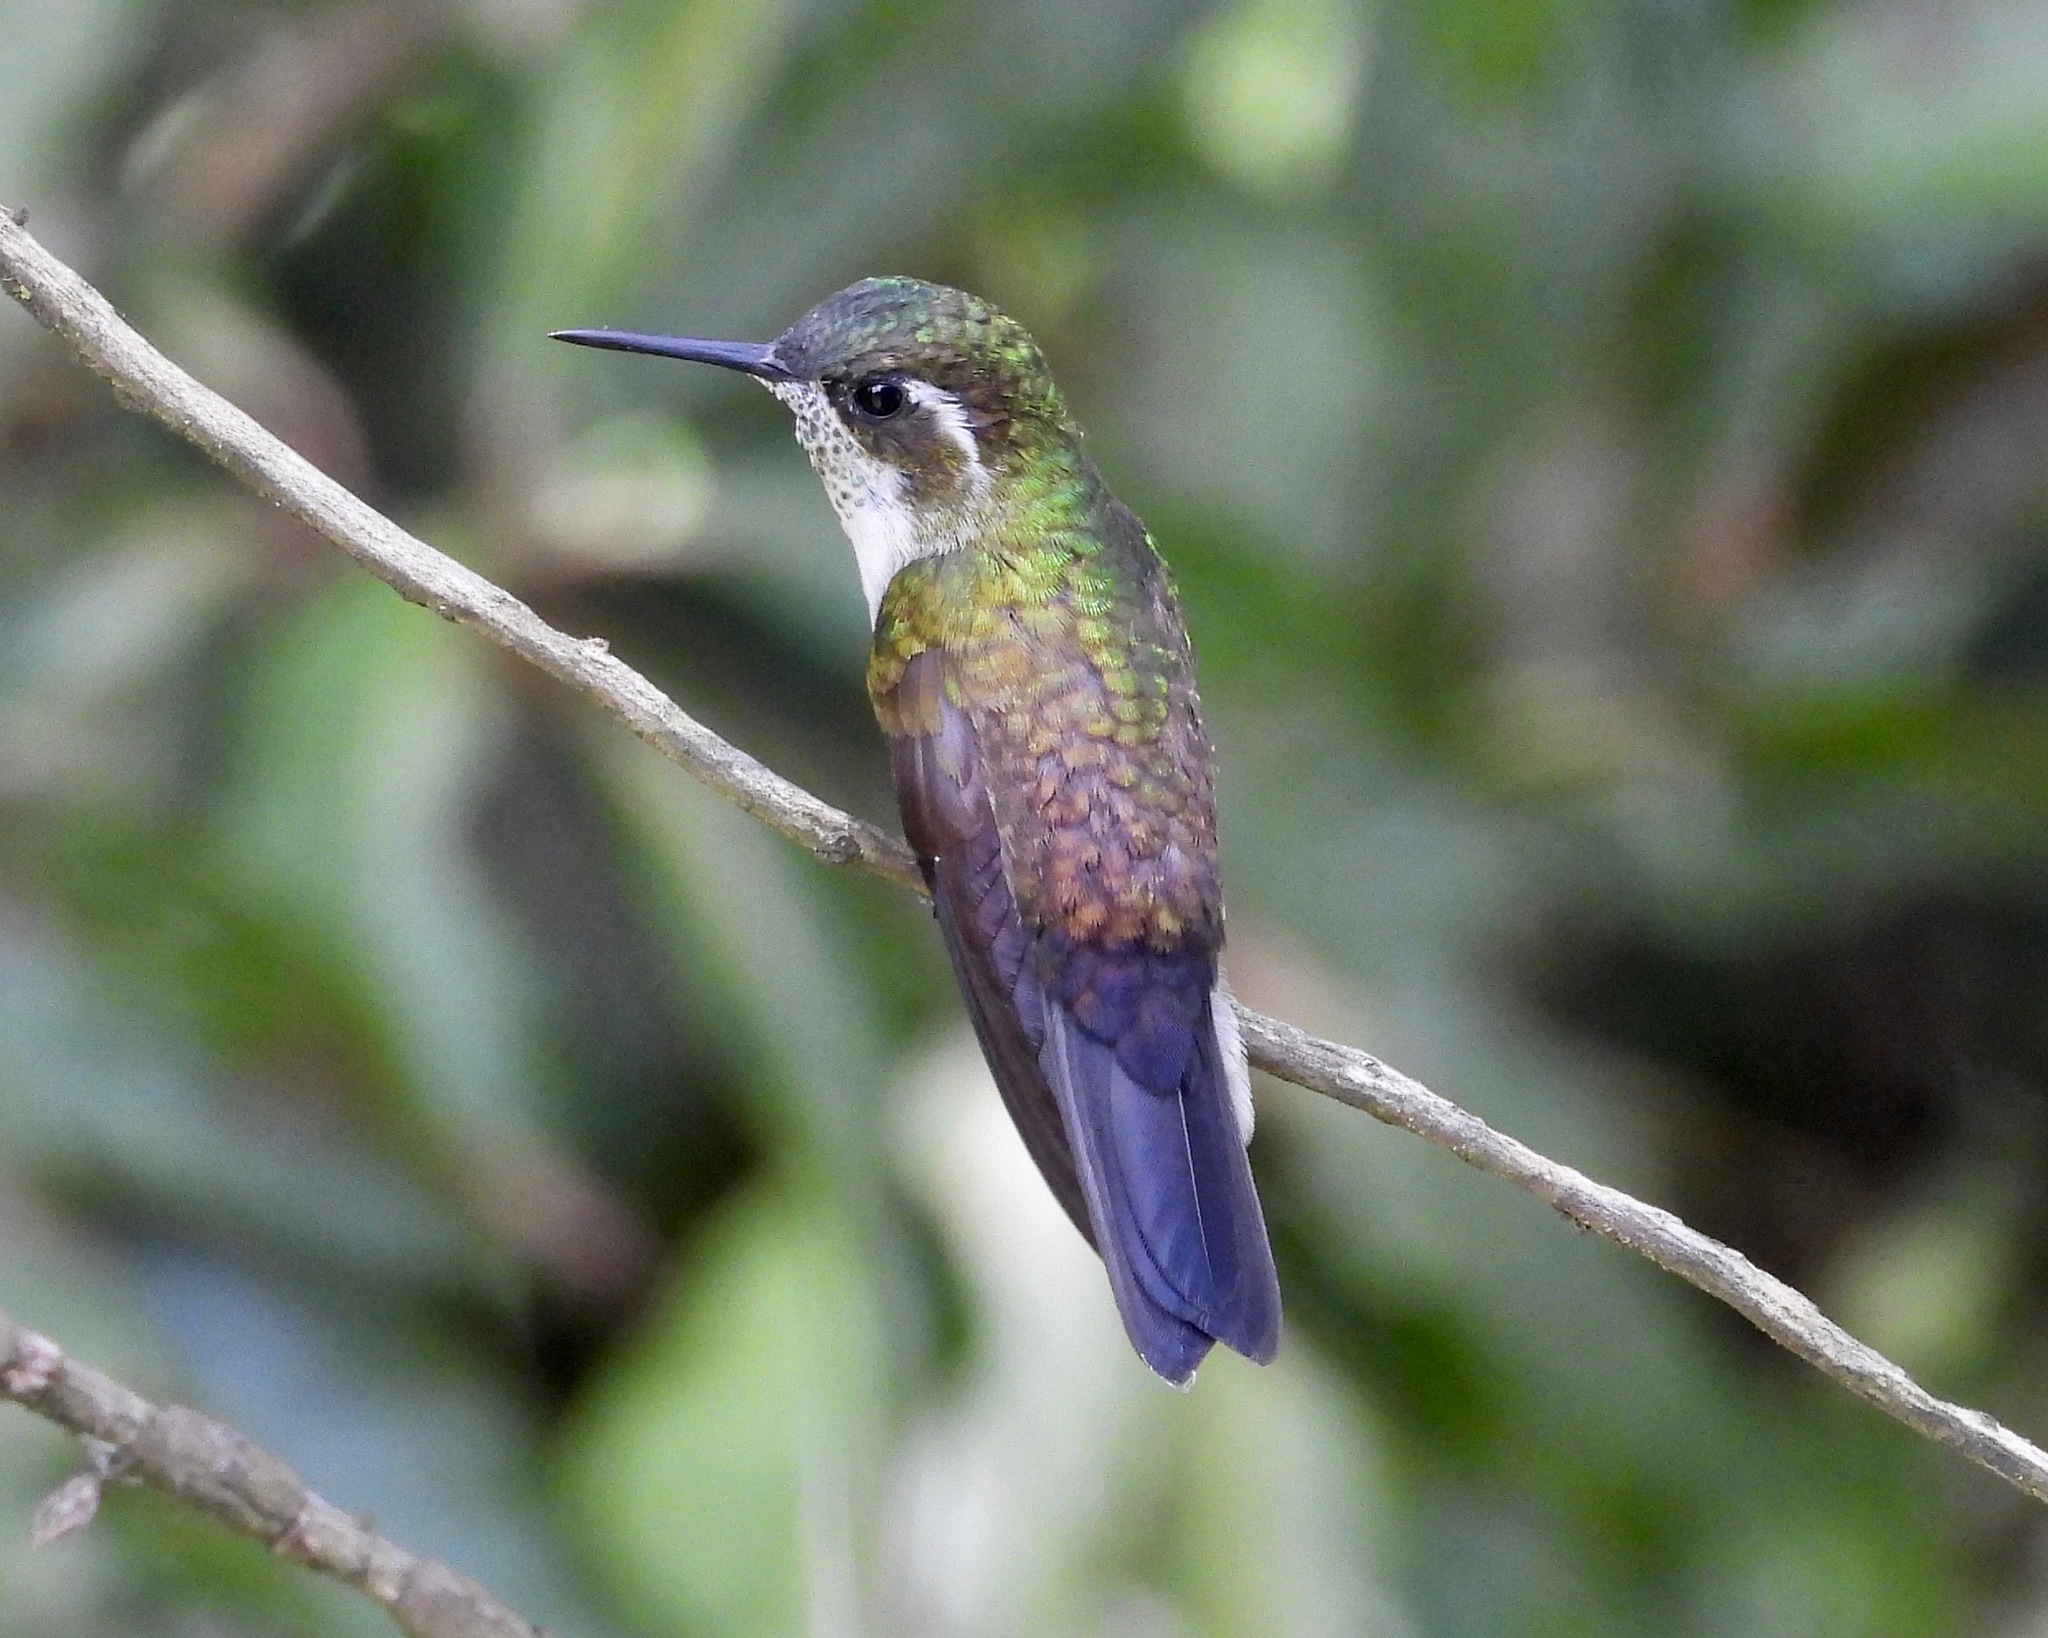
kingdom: Animalia
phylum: Chordata
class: Aves
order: Apodiformes
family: Trochilidae
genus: Lampornis
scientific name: Lampornis viridipallens
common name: Green-throated mountain-gem
